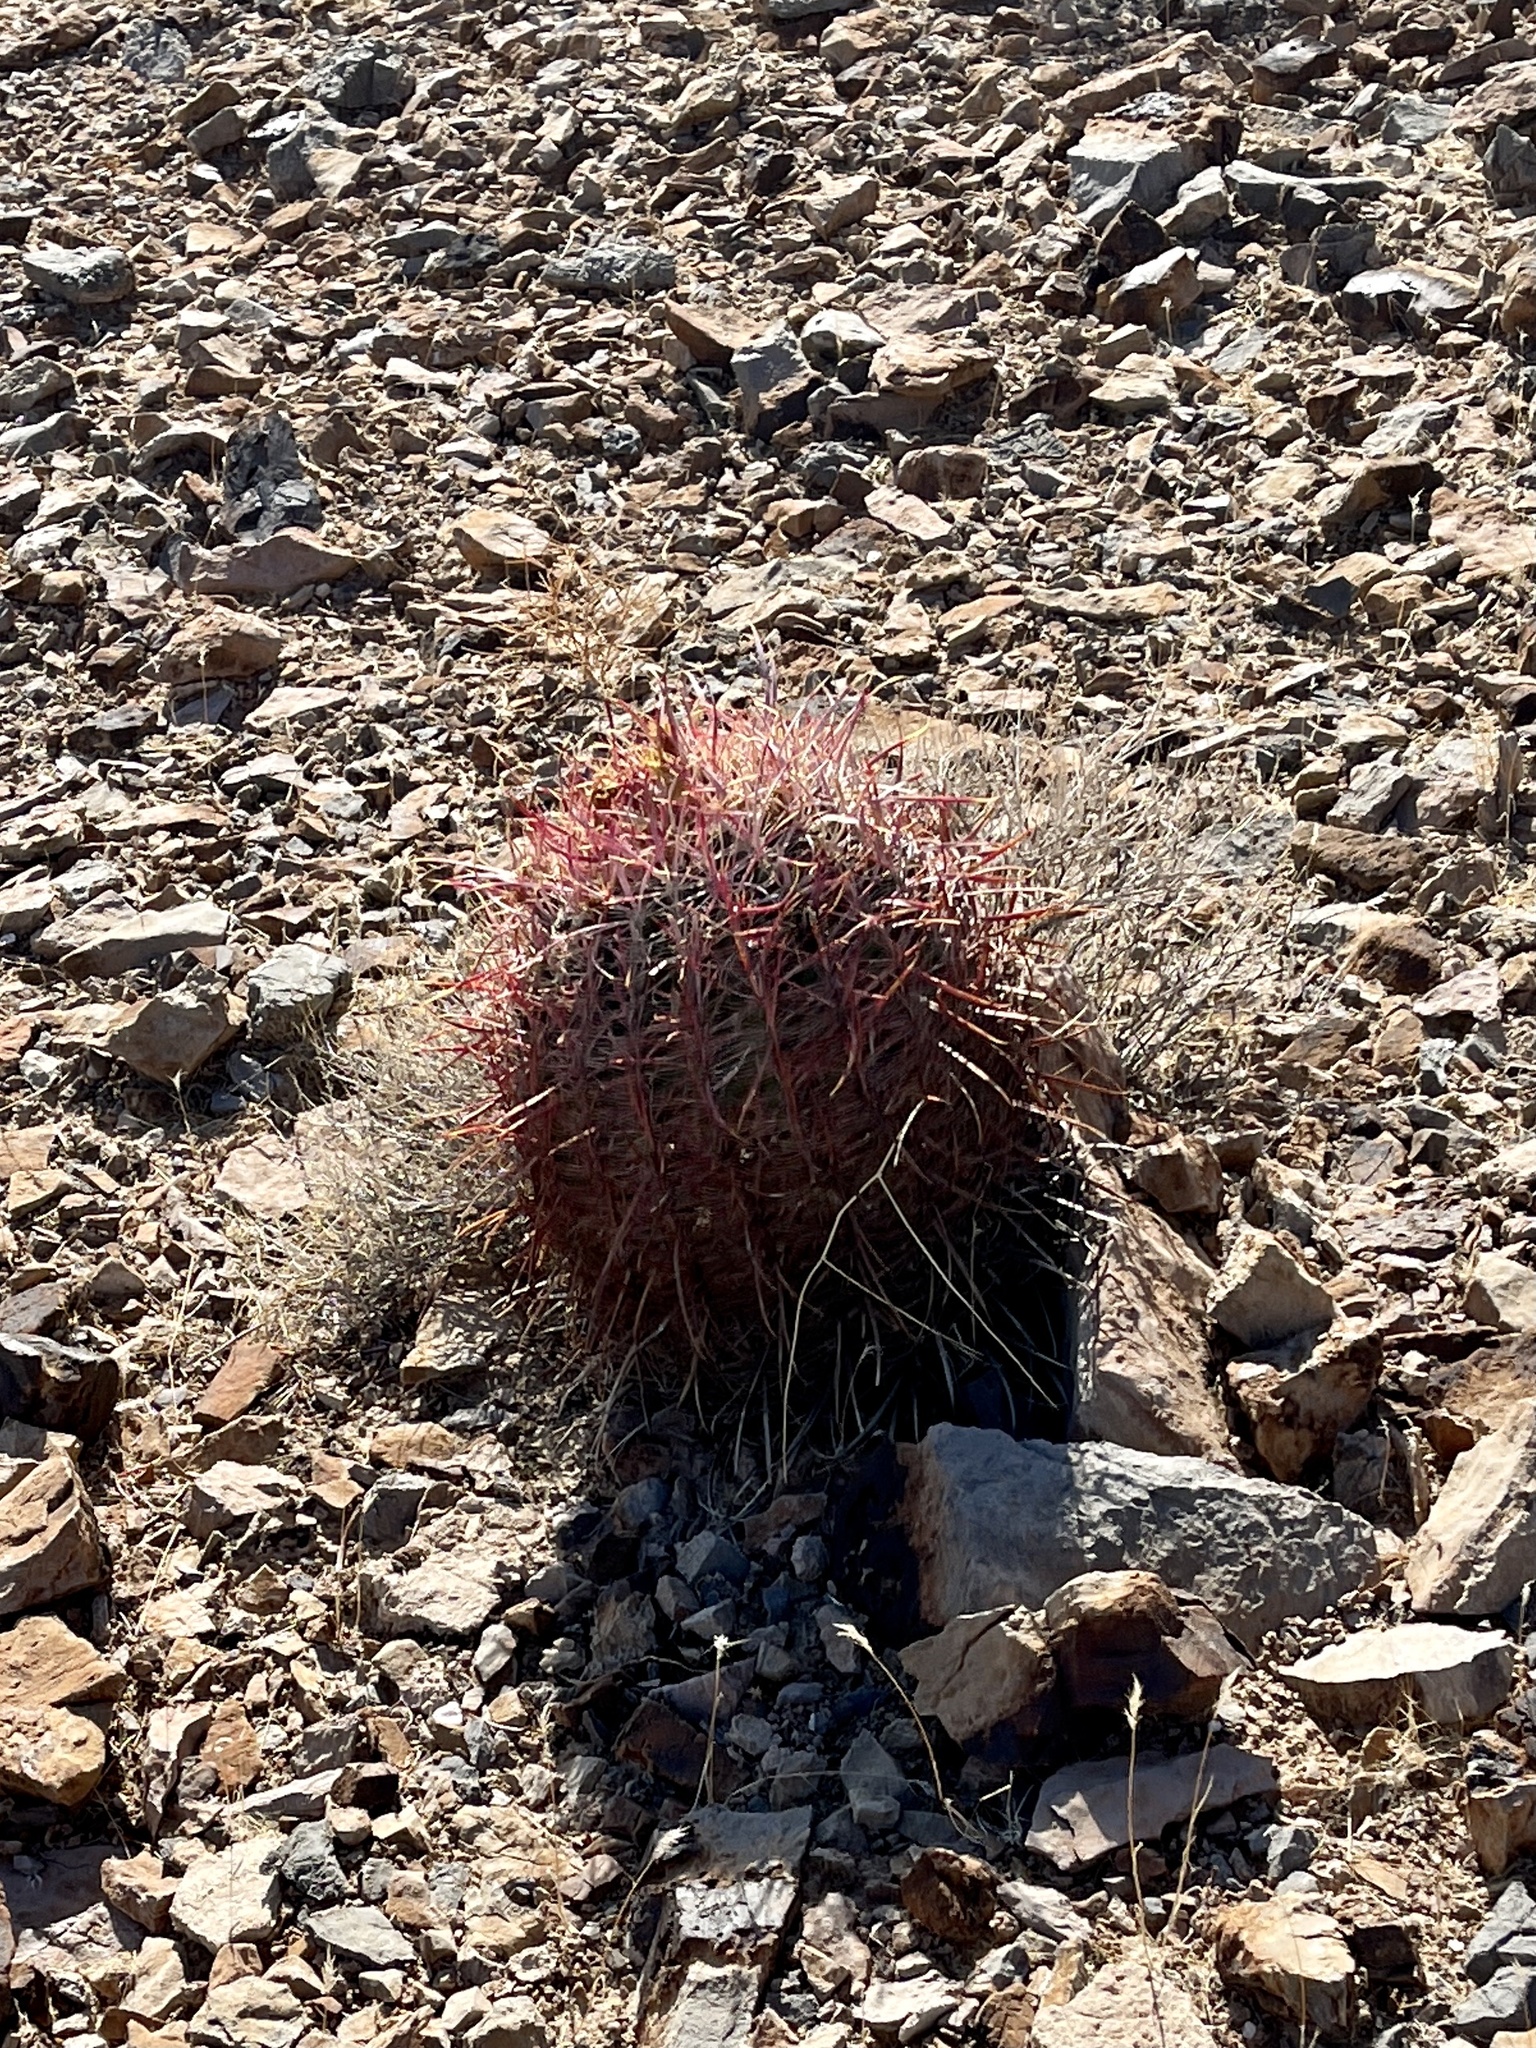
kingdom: Plantae
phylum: Tracheophyta
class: Magnoliopsida
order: Caryophyllales
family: Cactaceae
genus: Ferocactus
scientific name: Ferocactus cylindraceus
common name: California barrel cactus
